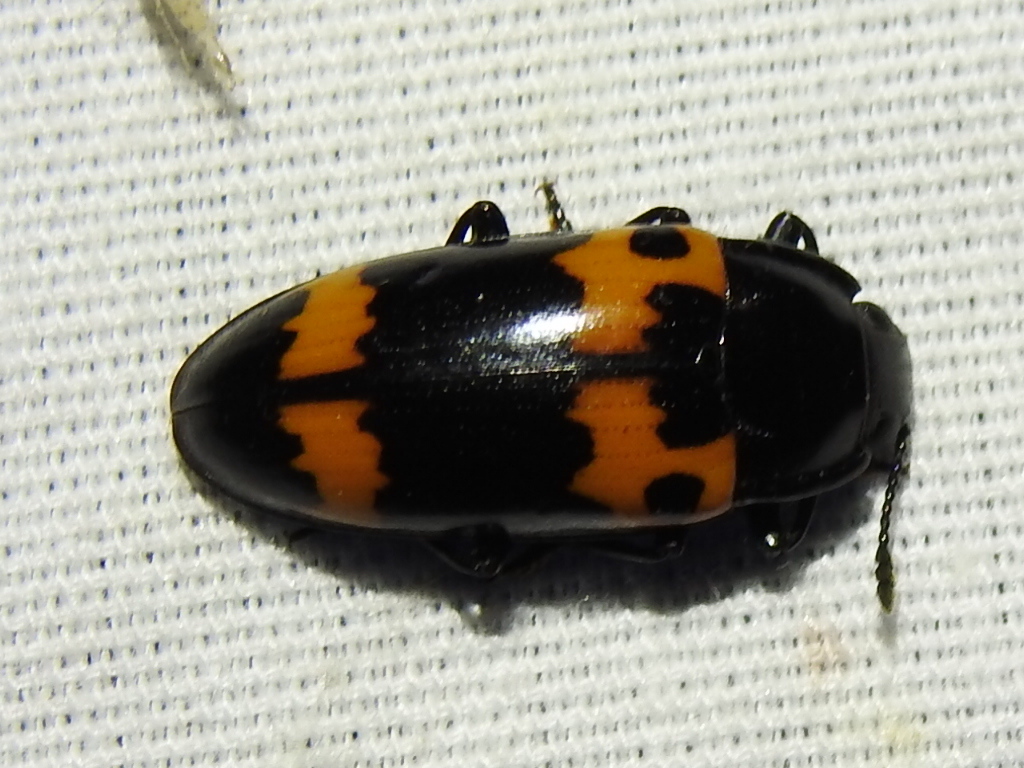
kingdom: Animalia
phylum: Arthropoda
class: Insecta
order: Coleoptera
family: Erotylidae
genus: Megalodacne
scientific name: Megalodacne fasciata
